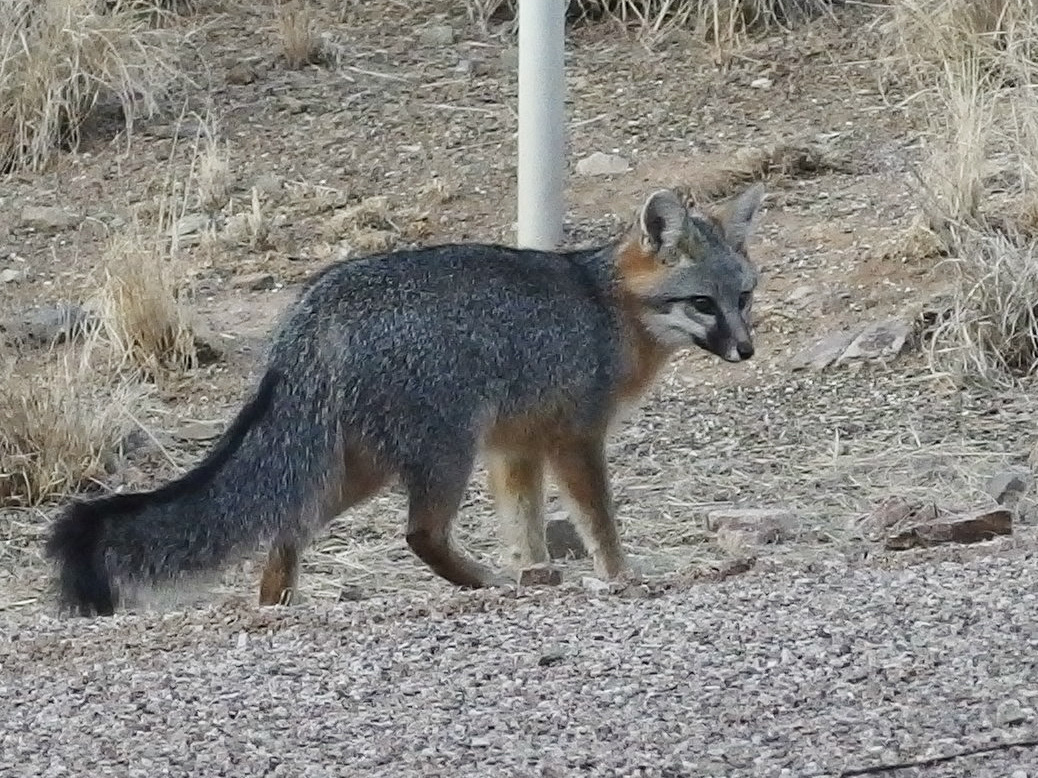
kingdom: Animalia
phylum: Chordata
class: Mammalia
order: Carnivora
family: Canidae
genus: Urocyon
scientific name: Urocyon cinereoargenteus
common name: Gray fox
